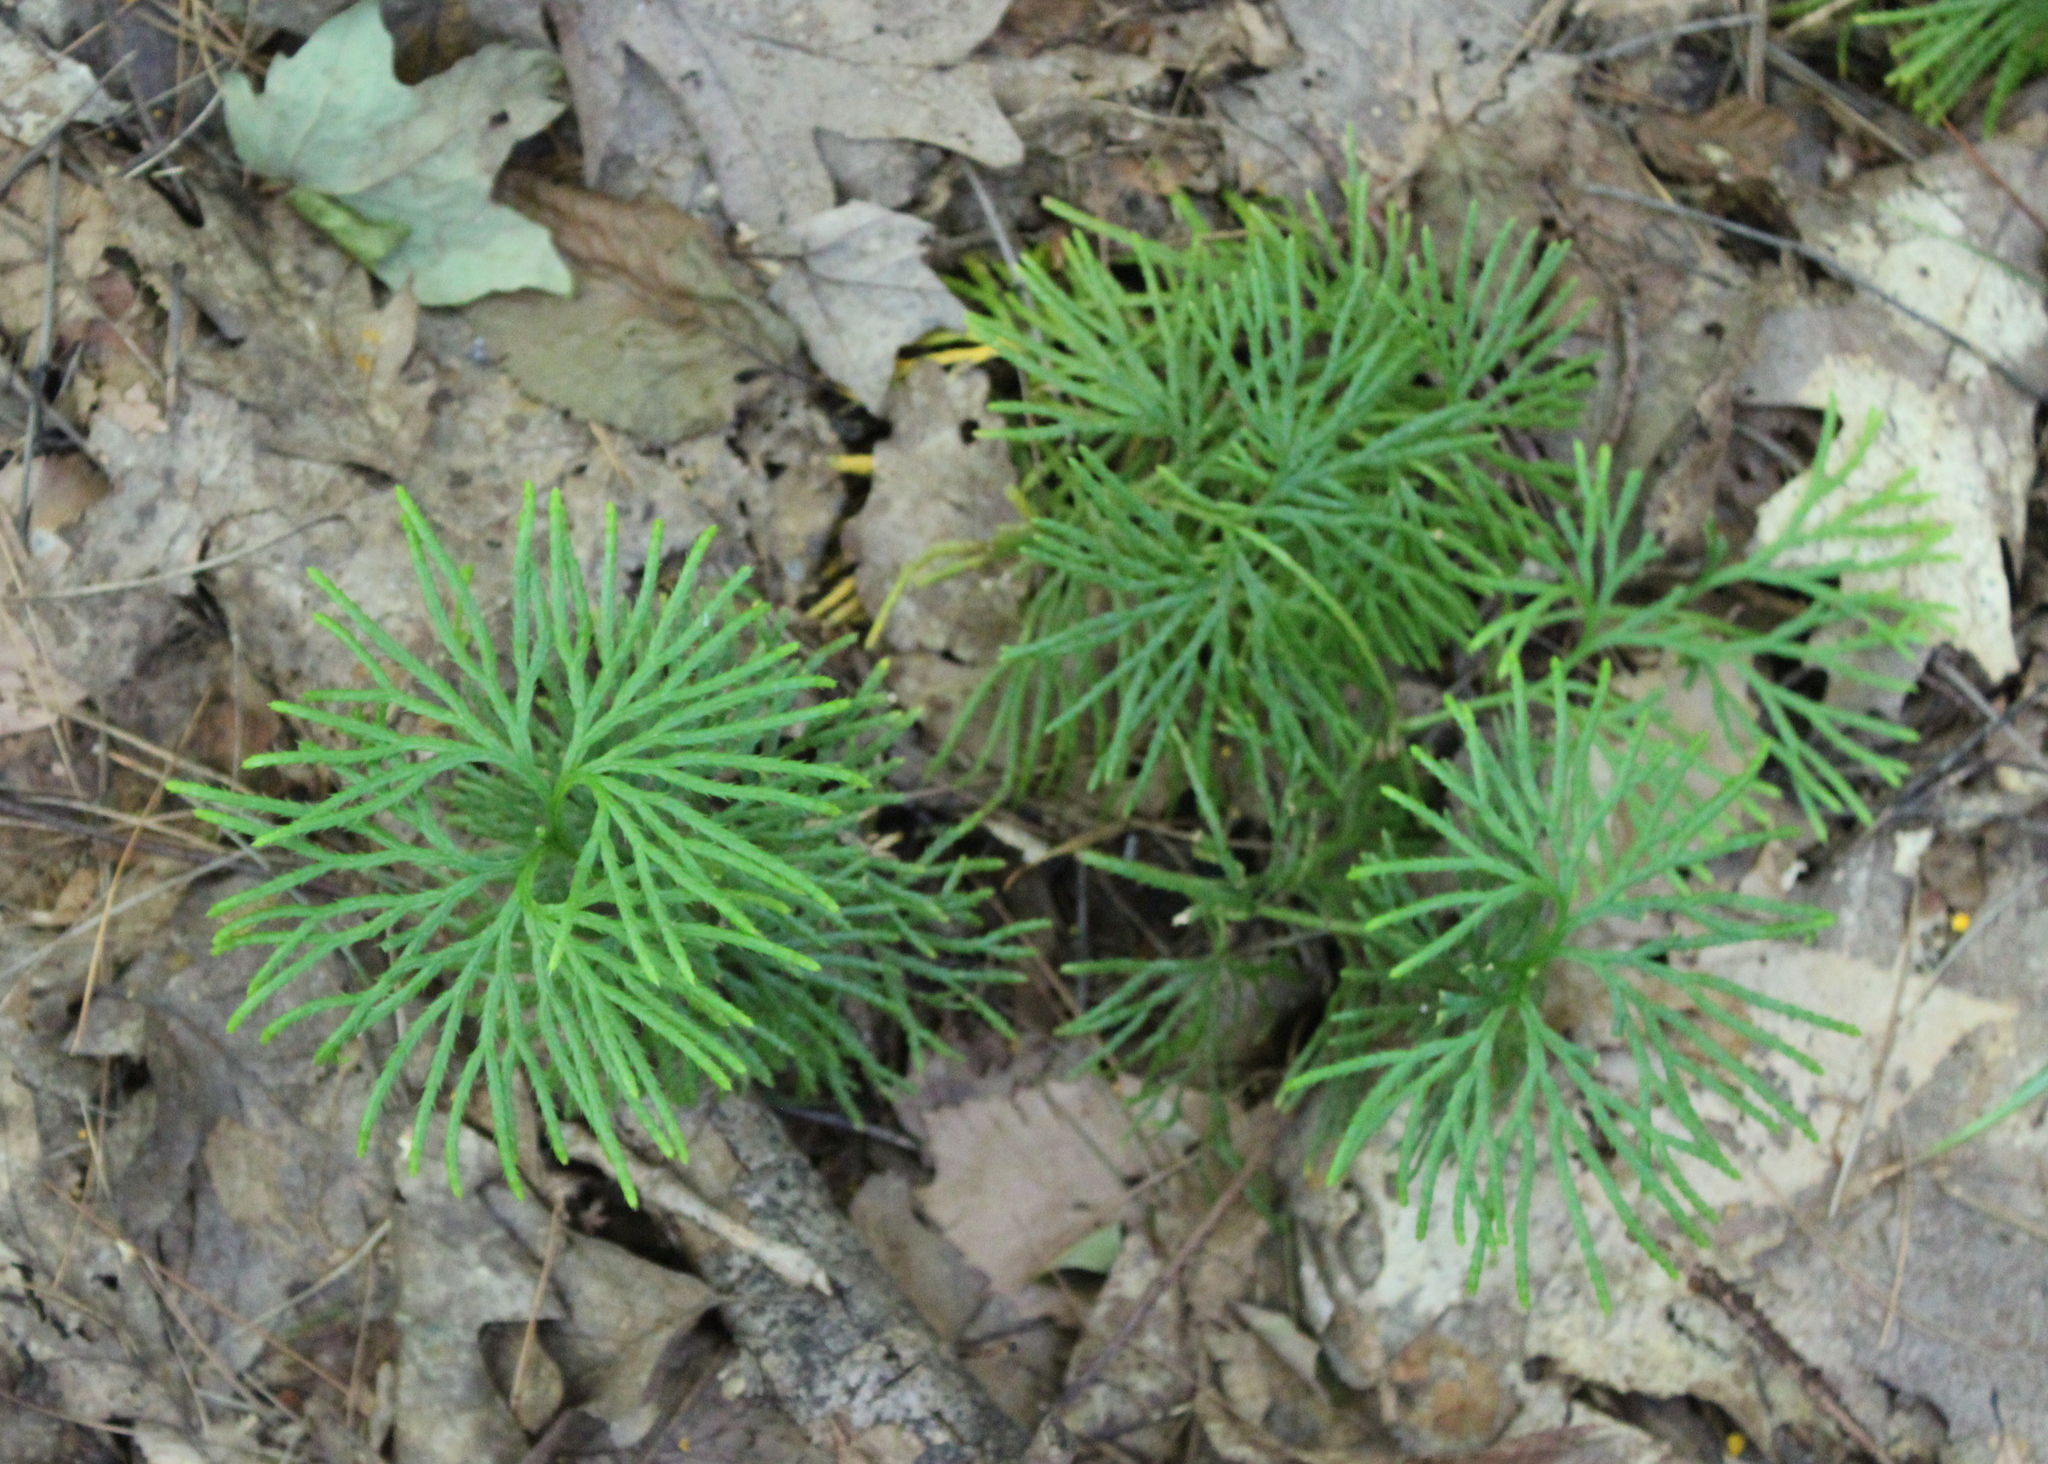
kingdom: Plantae
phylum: Tracheophyta
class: Lycopodiopsida
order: Lycopodiales
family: Lycopodiaceae
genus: Diphasiastrum
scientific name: Diphasiastrum digitatum
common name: Southern running-pine
